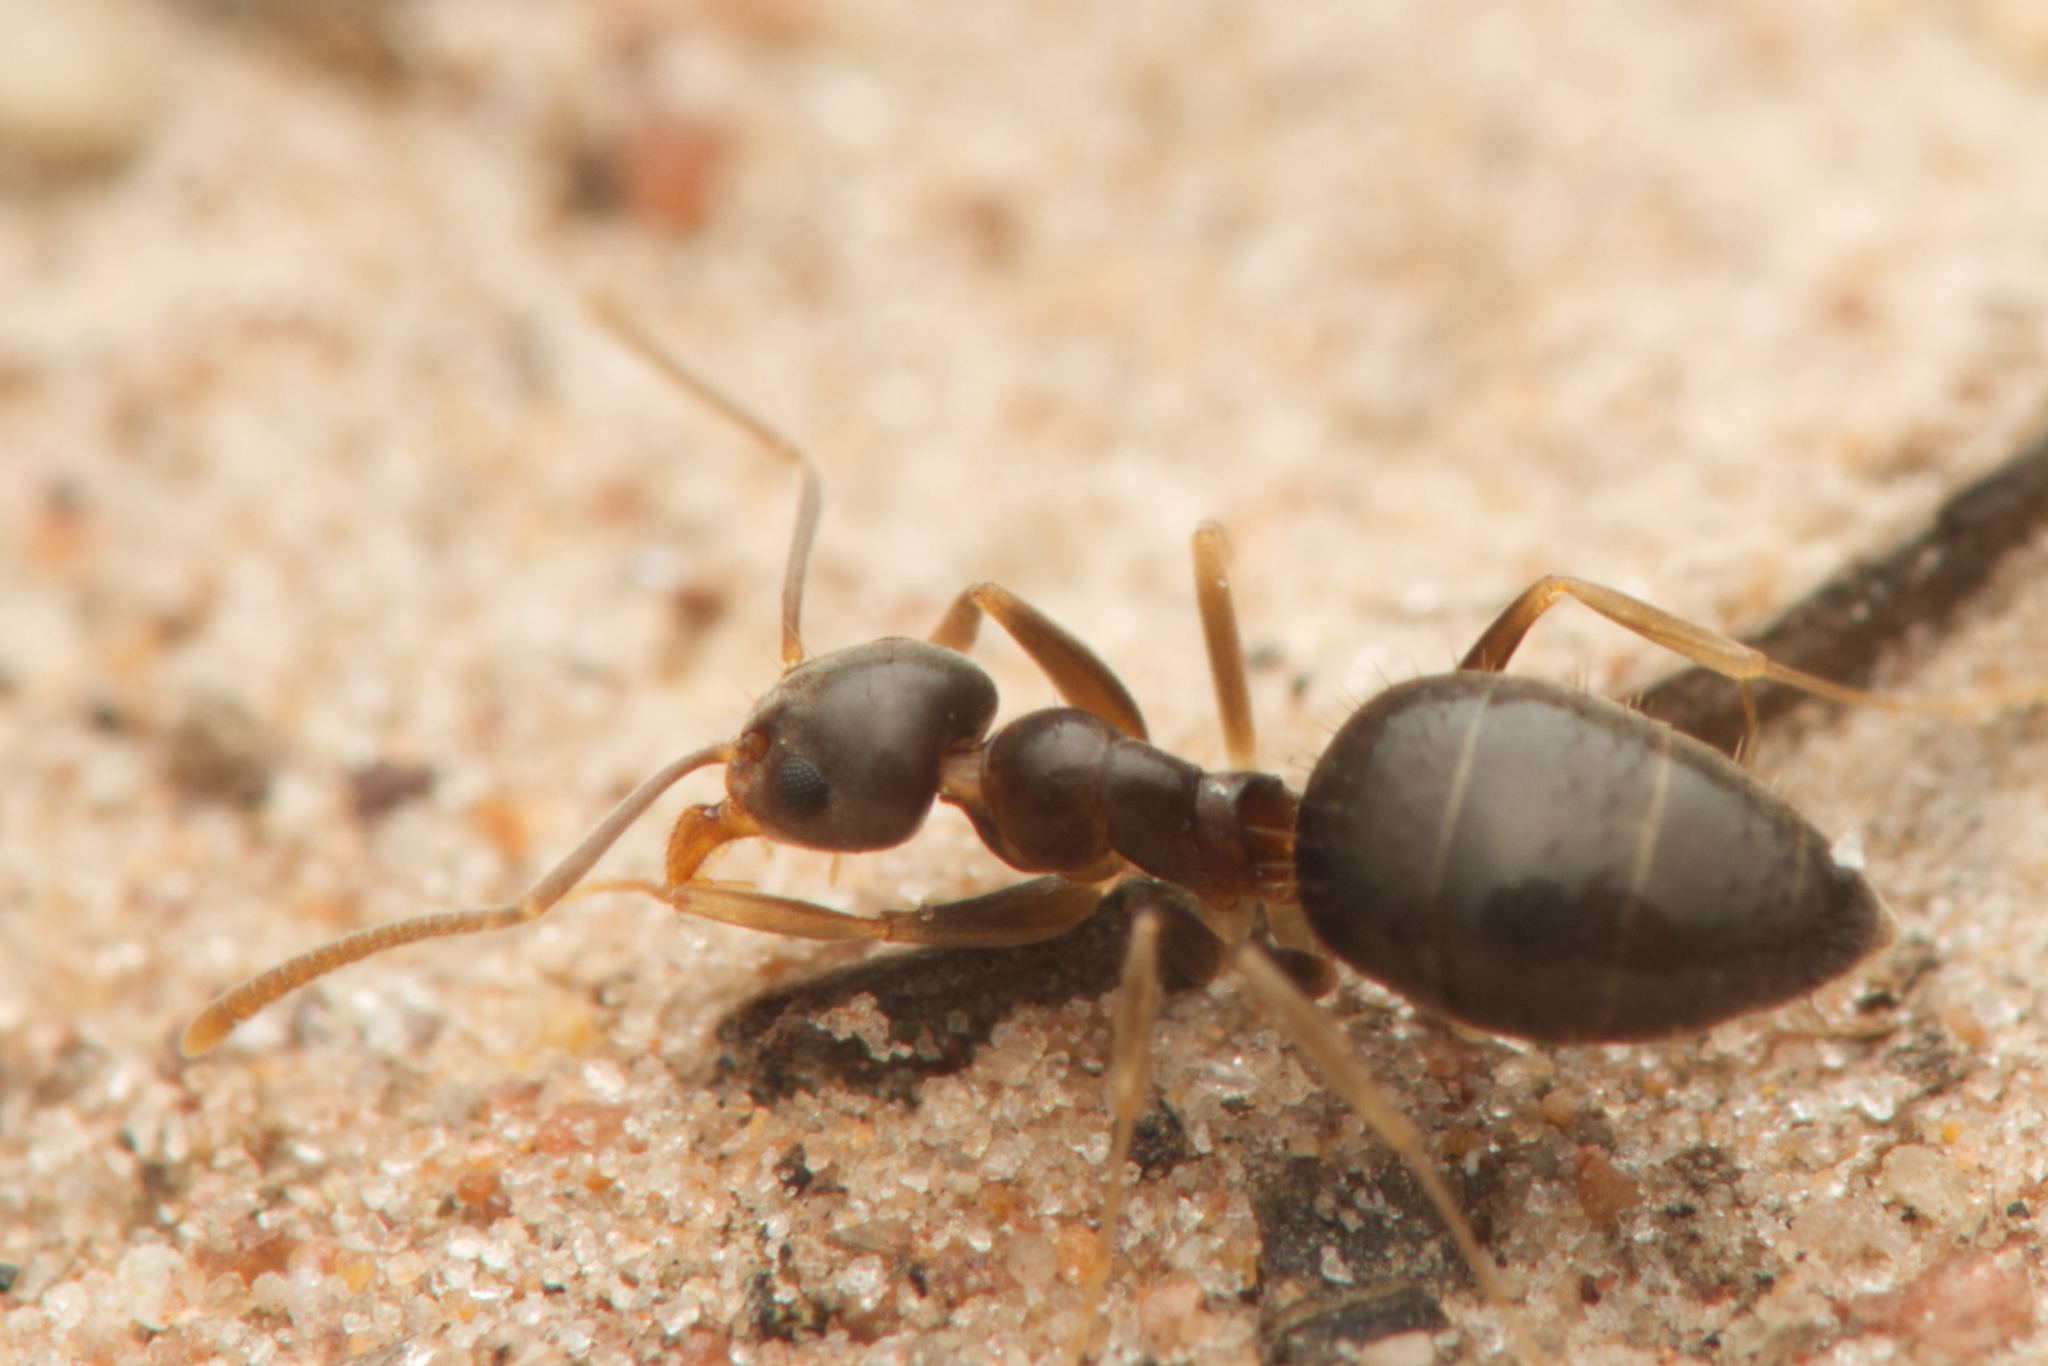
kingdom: Animalia
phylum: Arthropoda
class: Insecta
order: Hymenoptera
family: Formicidae
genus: Technomyrmex
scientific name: Technomyrmex
